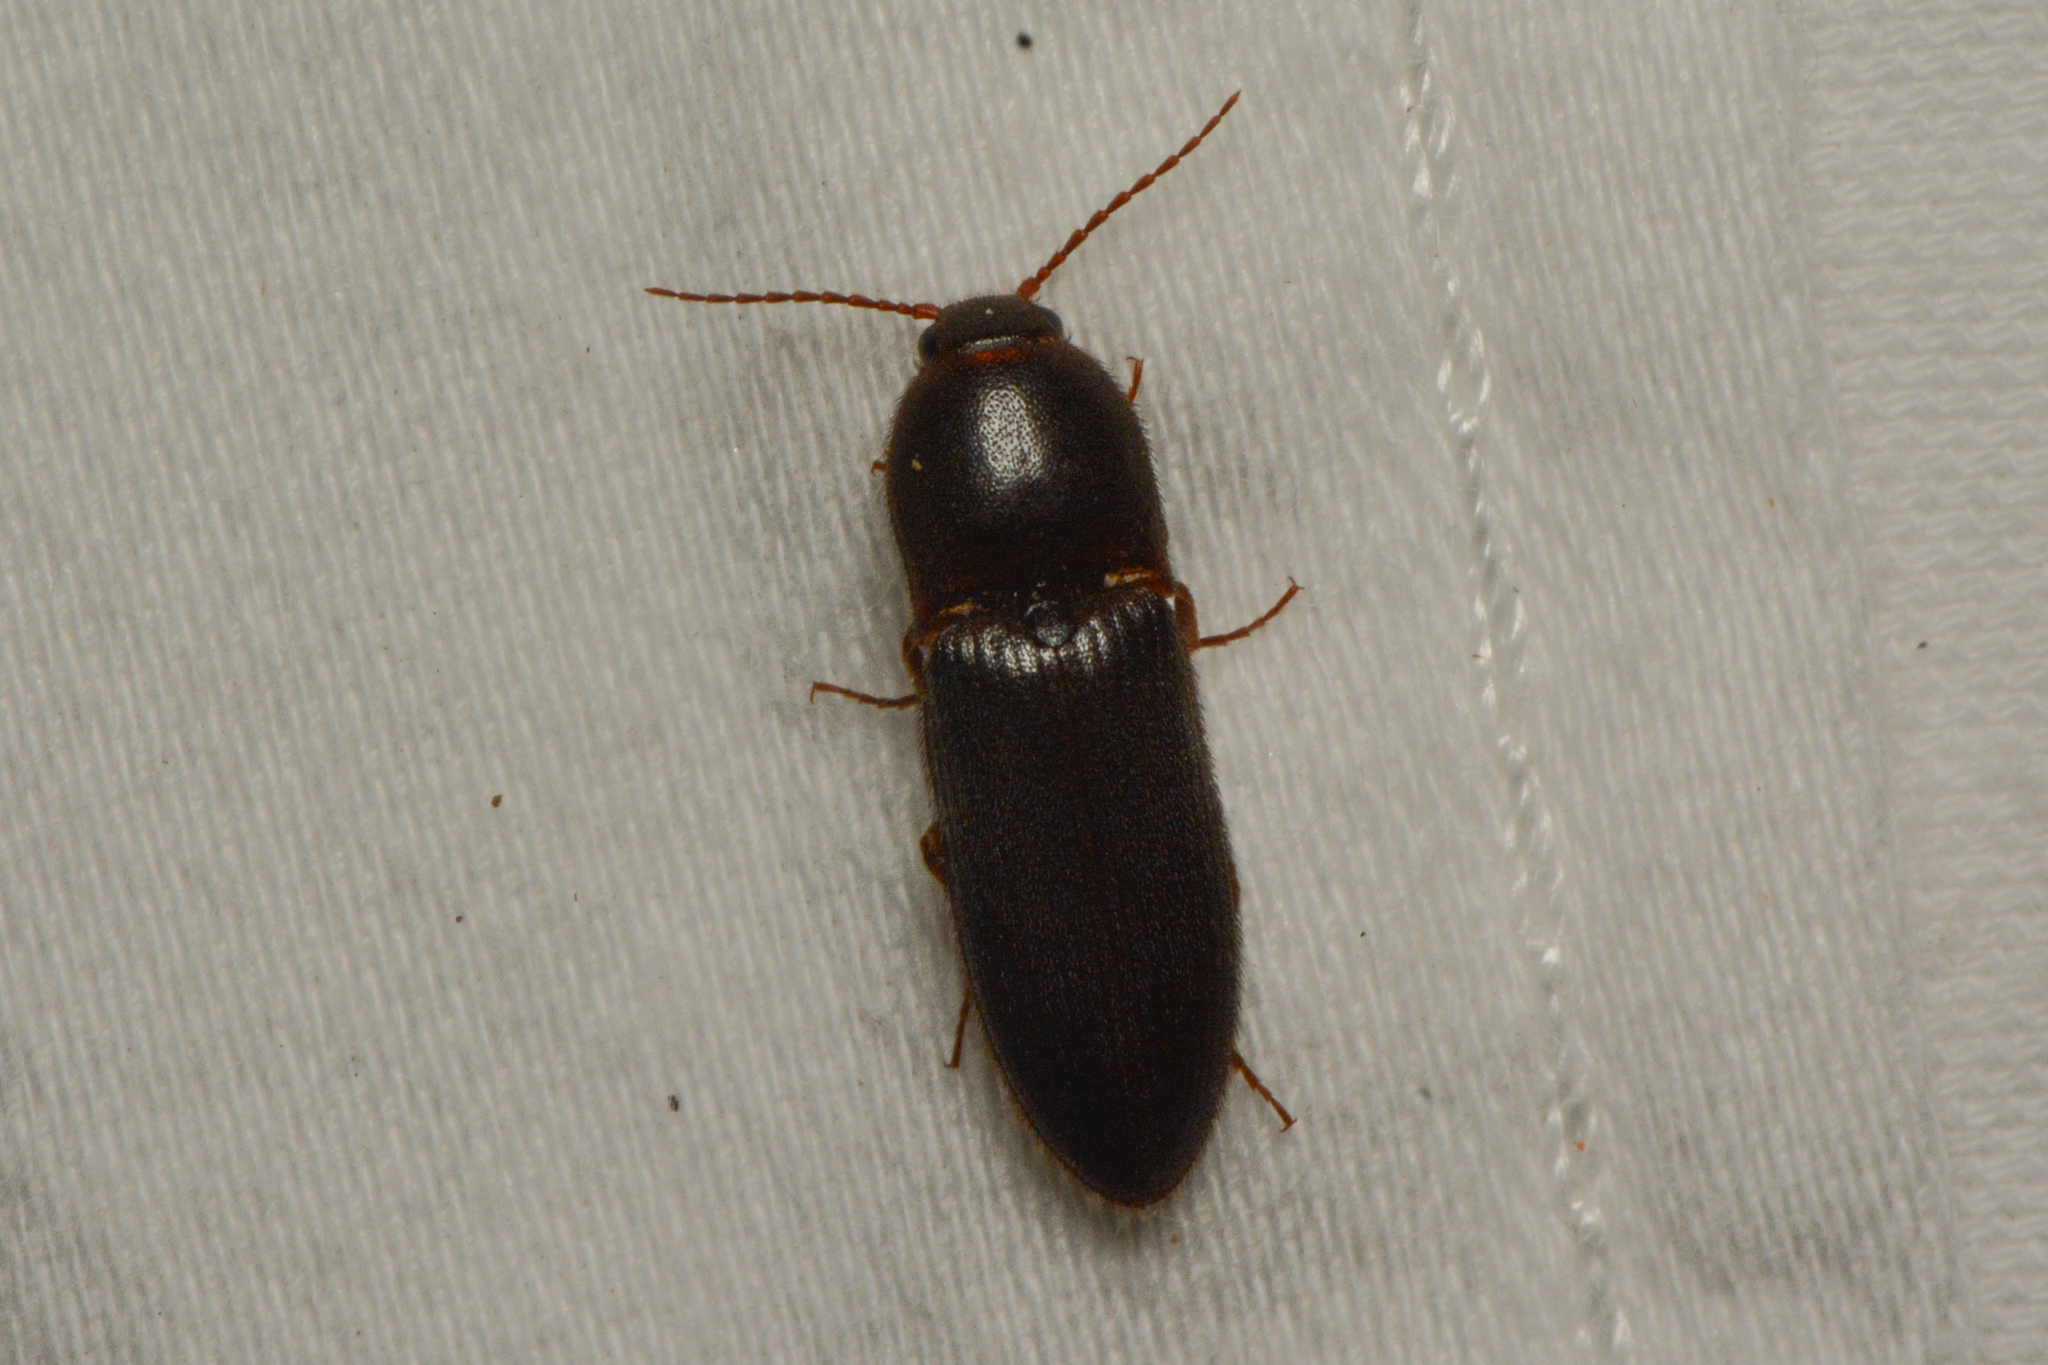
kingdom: Animalia
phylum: Arthropoda
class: Insecta
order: Coleoptera
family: Elateridae
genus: Ampedus
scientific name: Ampedus rhodopus
